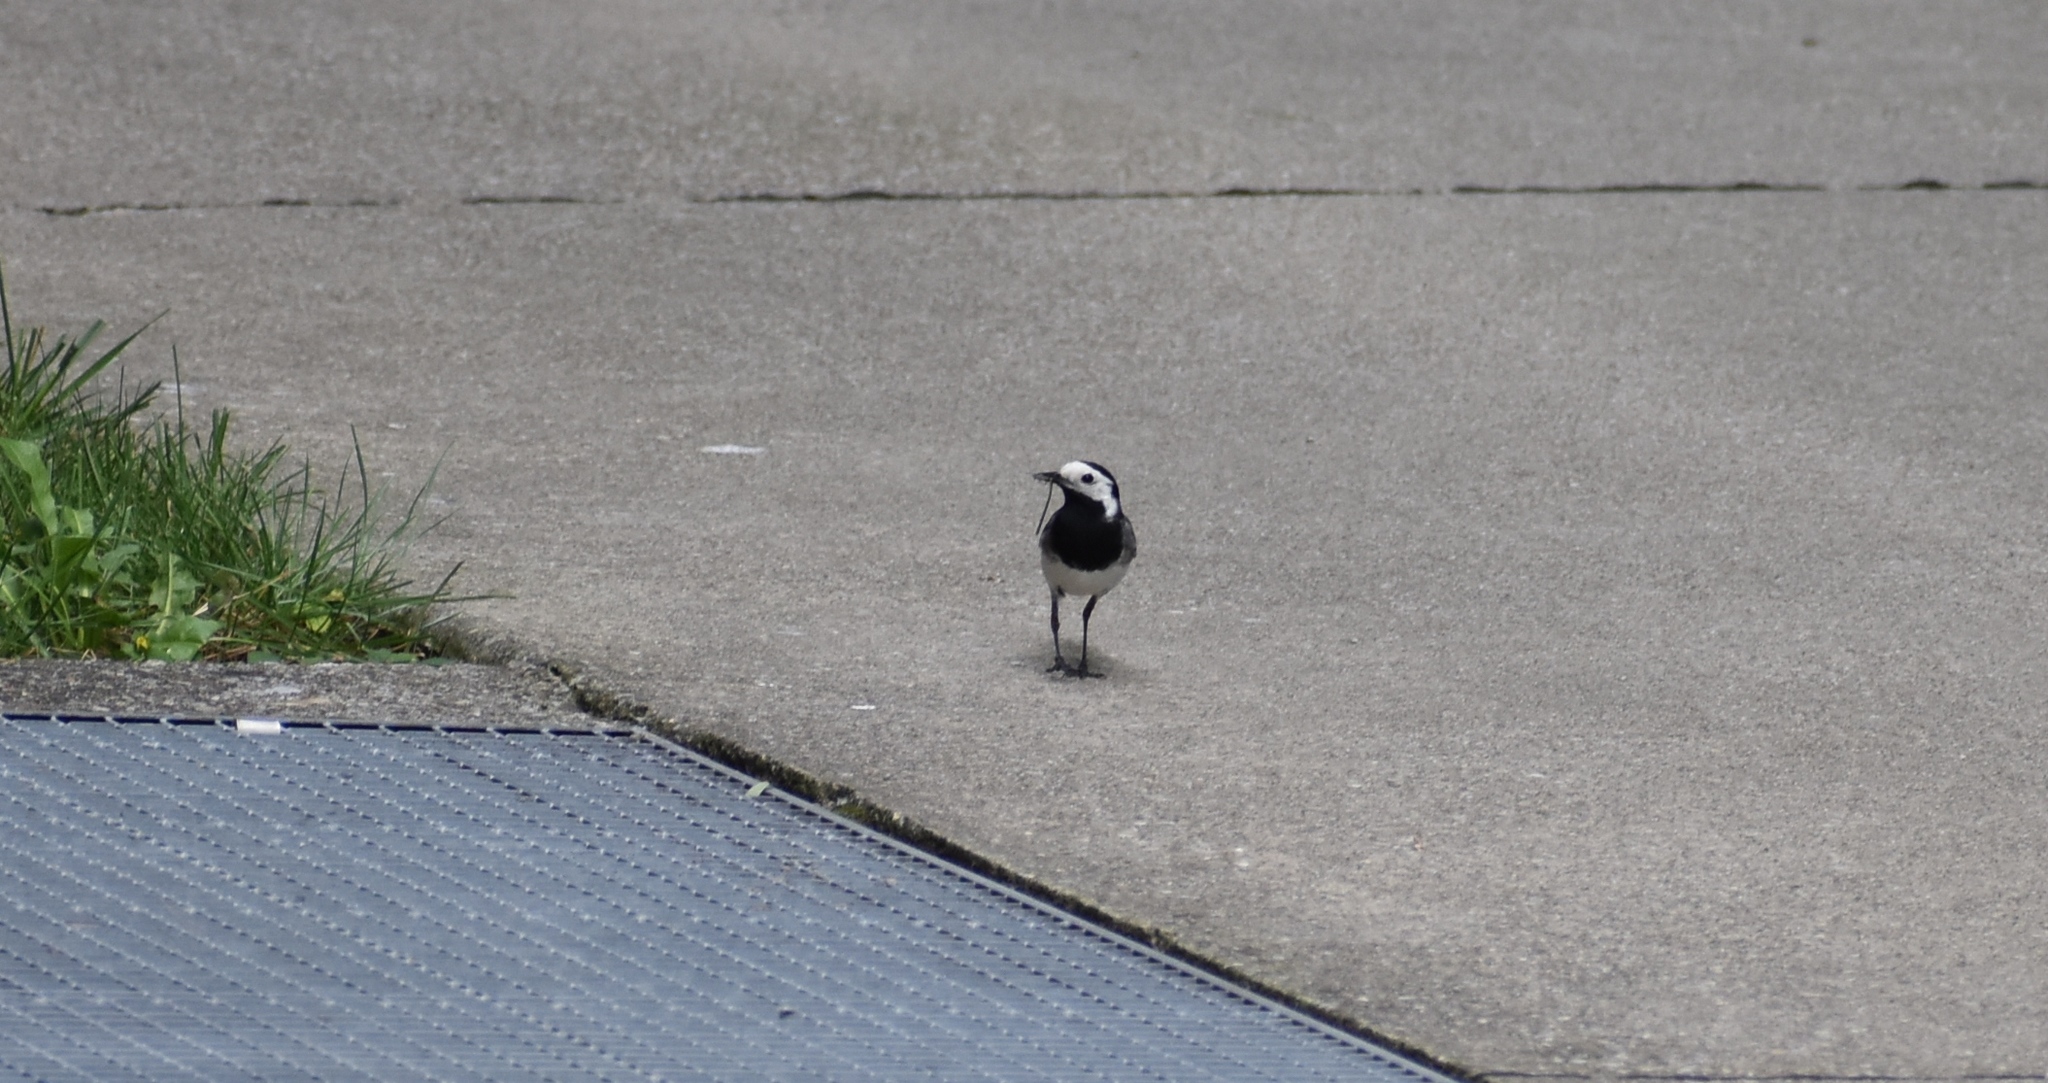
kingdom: Animalia
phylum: Chordata
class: Aves
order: Passeriformes
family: Motacillidae
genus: Motacilla
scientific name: Motacilla alba
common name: White wagtail
